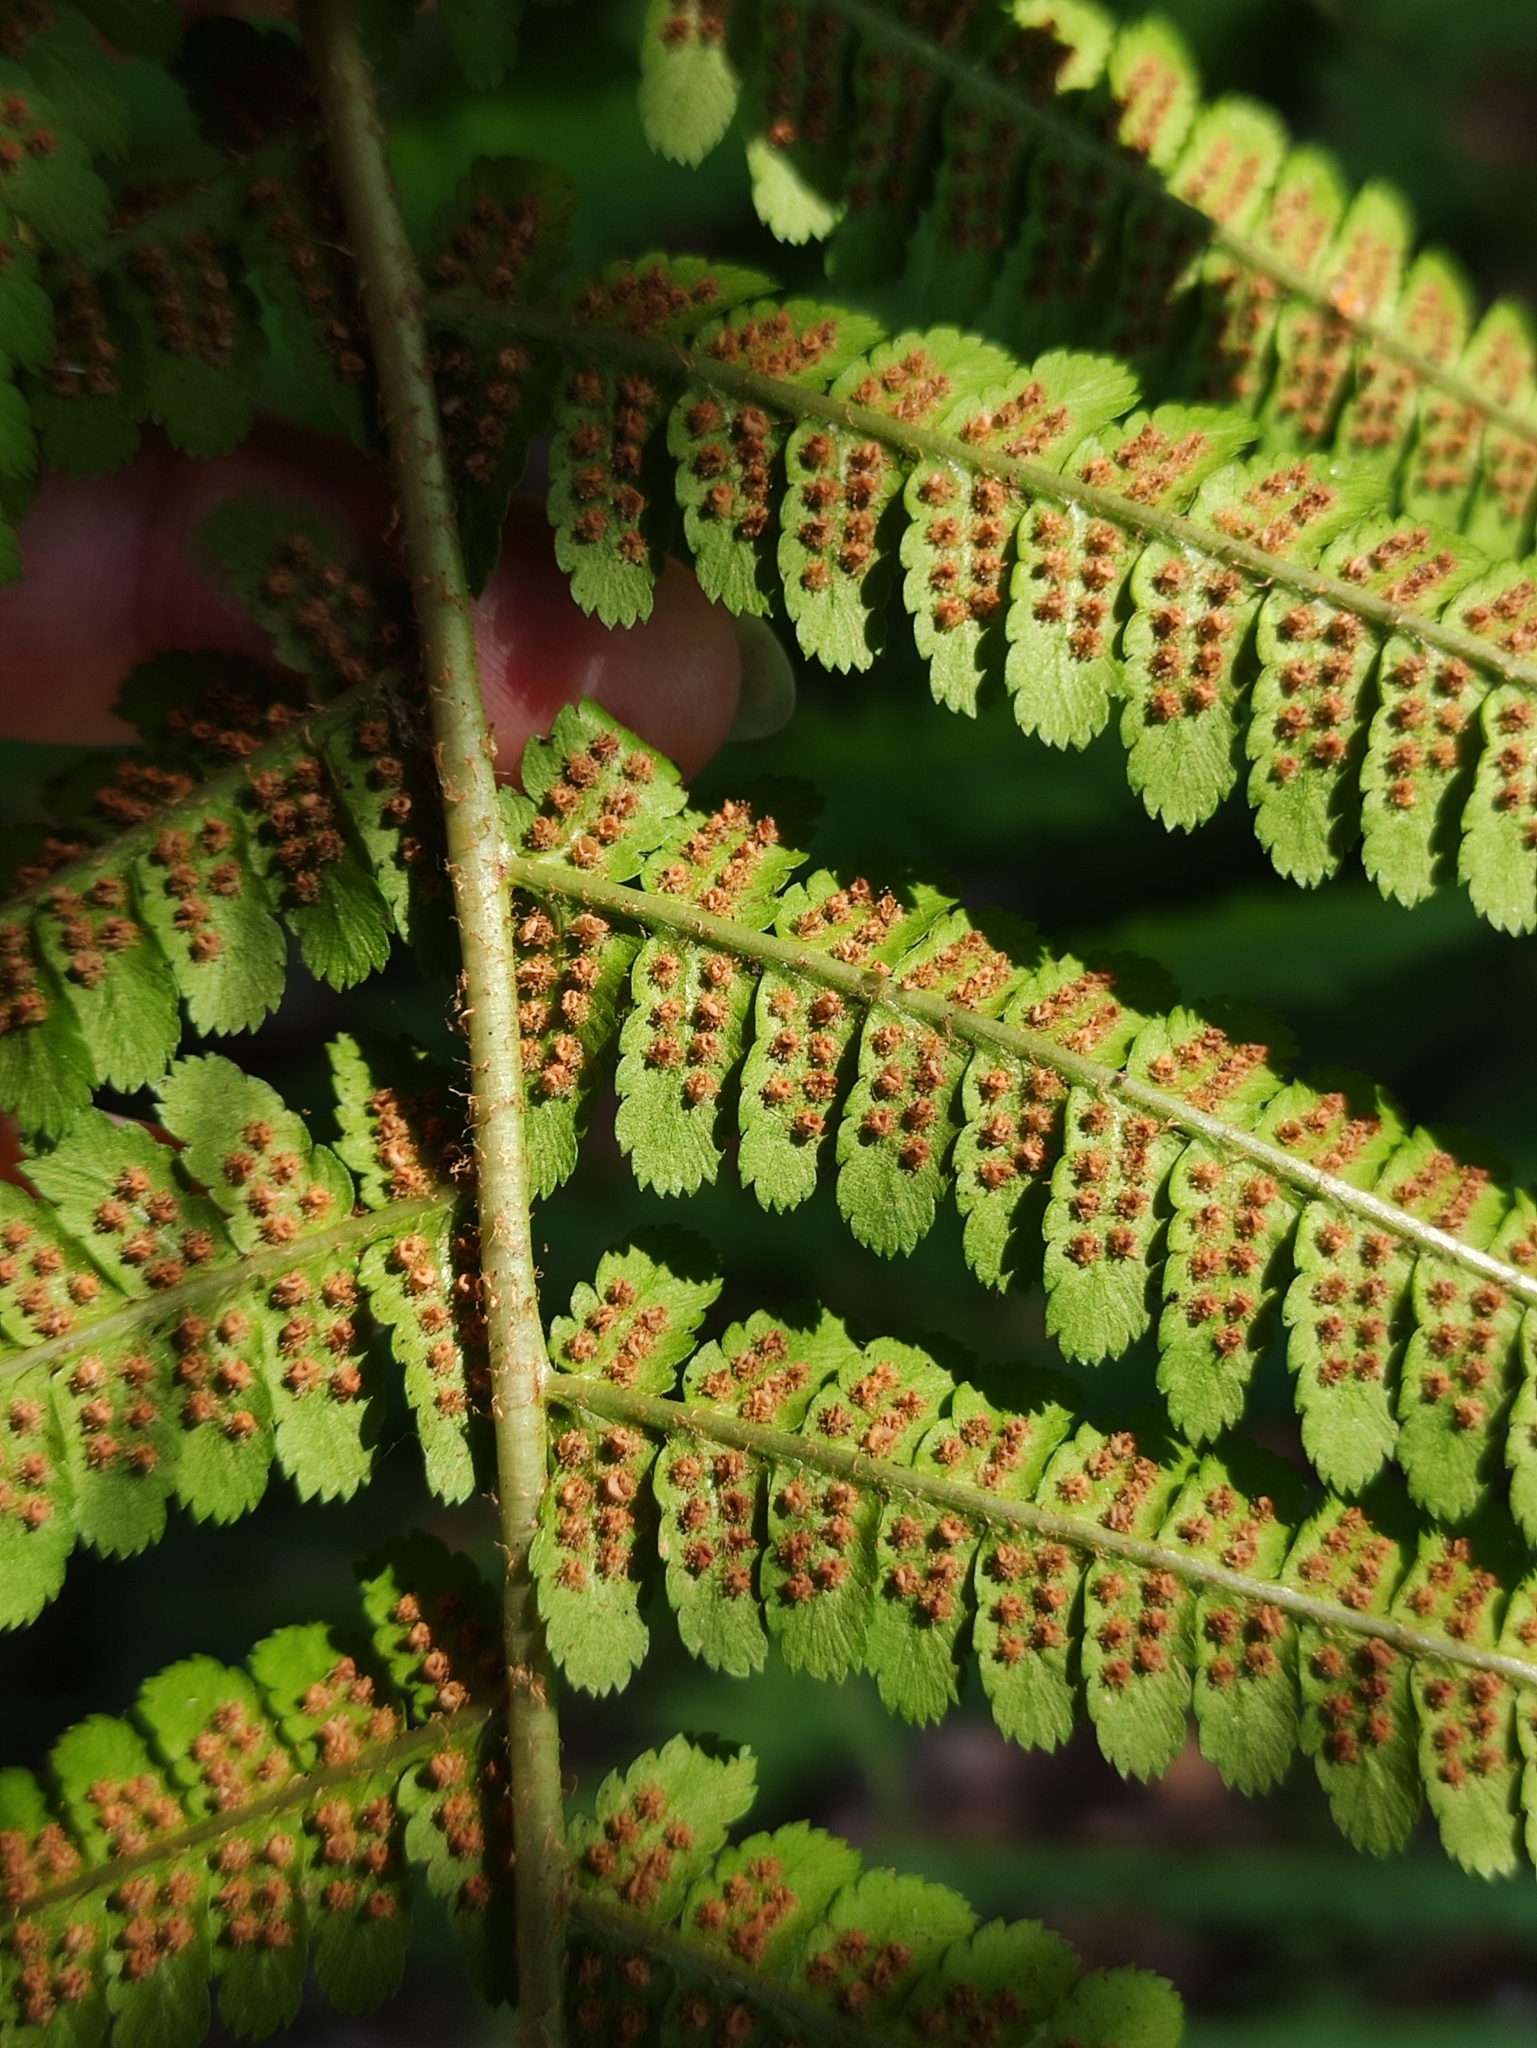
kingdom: Plantae
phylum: Tracheophyta
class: Polypodiopsida
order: Polypodiales
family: Dryopteridaceae
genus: Dryopteris
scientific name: Dryopteris filix-mas
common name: Male fern
